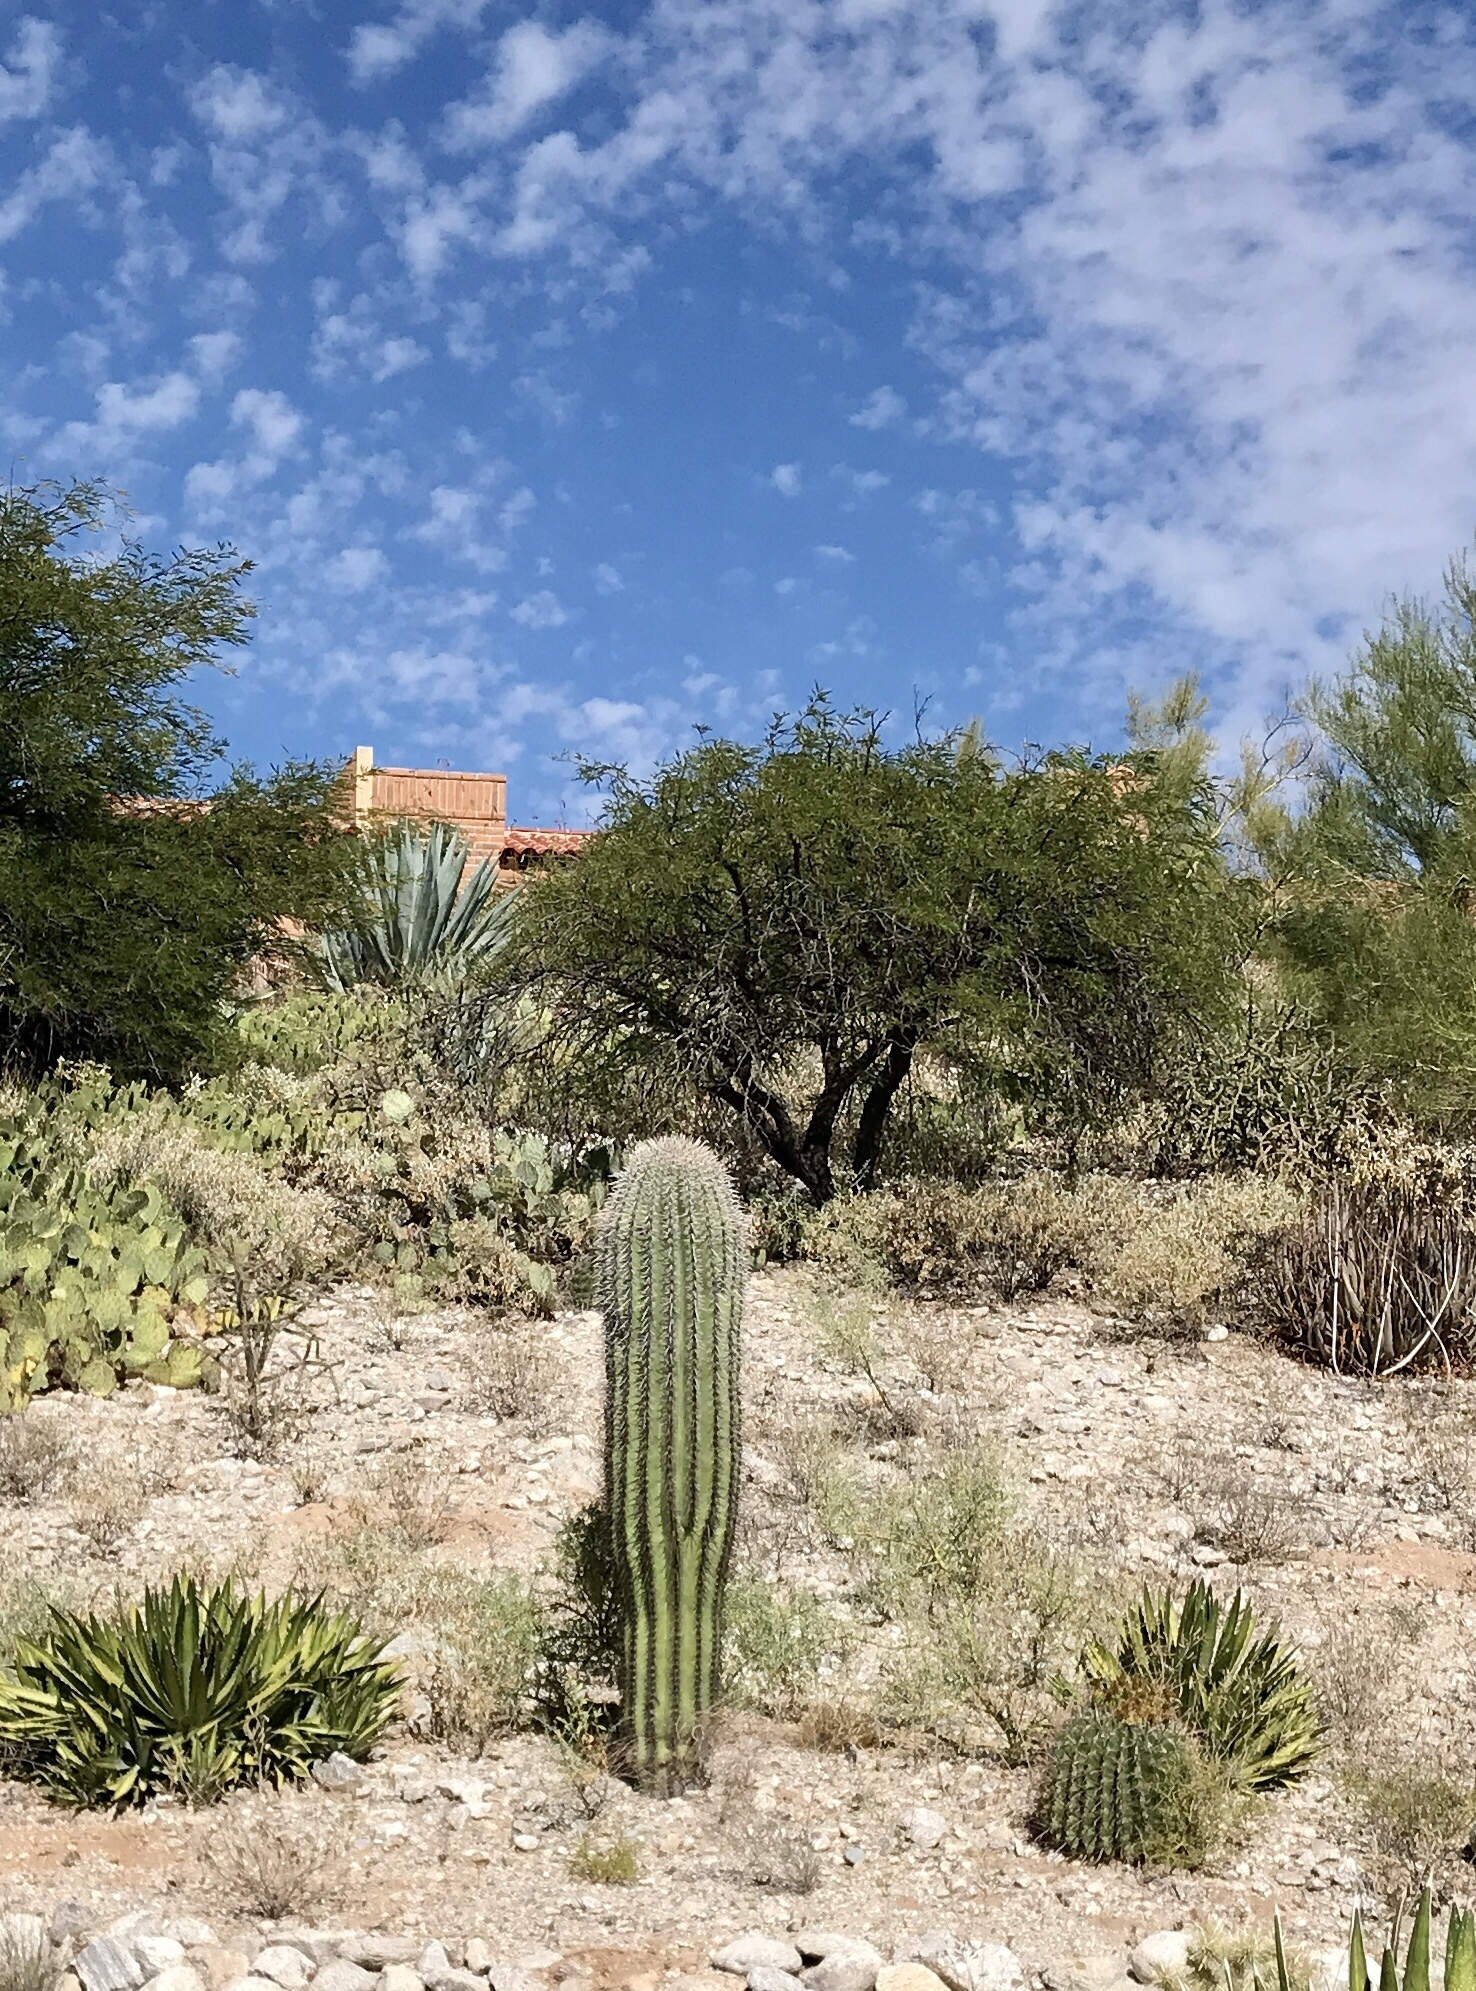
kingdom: Plantae
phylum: Tracheophyta
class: Magnoliopsida
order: Caryophyllales
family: Cactaceae
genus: Carnegiea
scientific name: Carnegiea gigantea
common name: Saguaro
